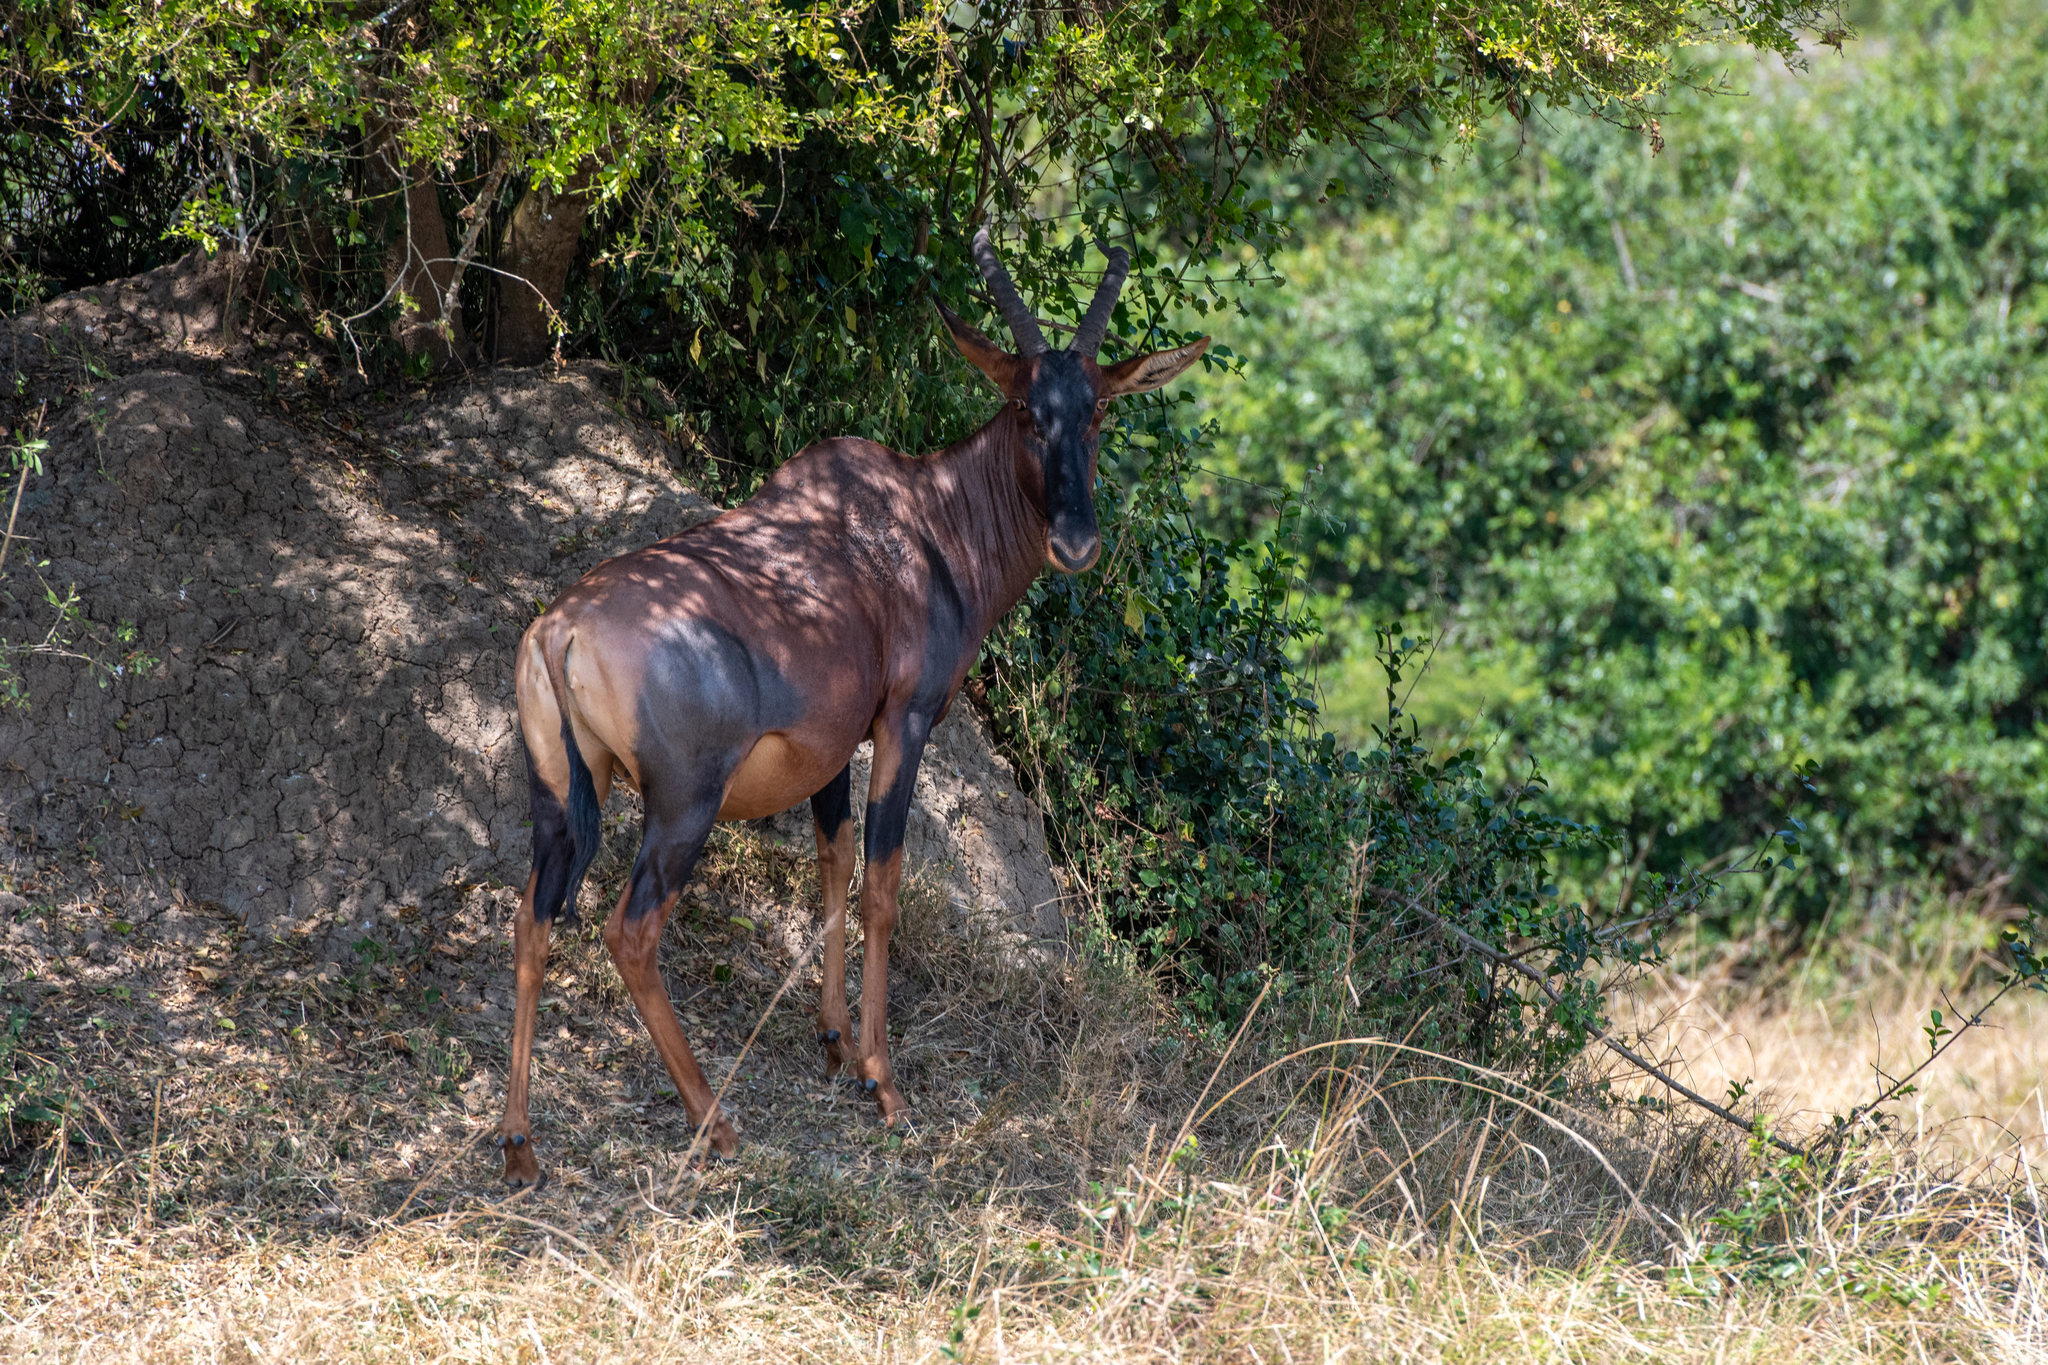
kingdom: Animalia
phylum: Chordata
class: Mammalia
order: Artiodactyla
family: Bovidae
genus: Damaliscus
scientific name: Damaliscus korrigum
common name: Topi
